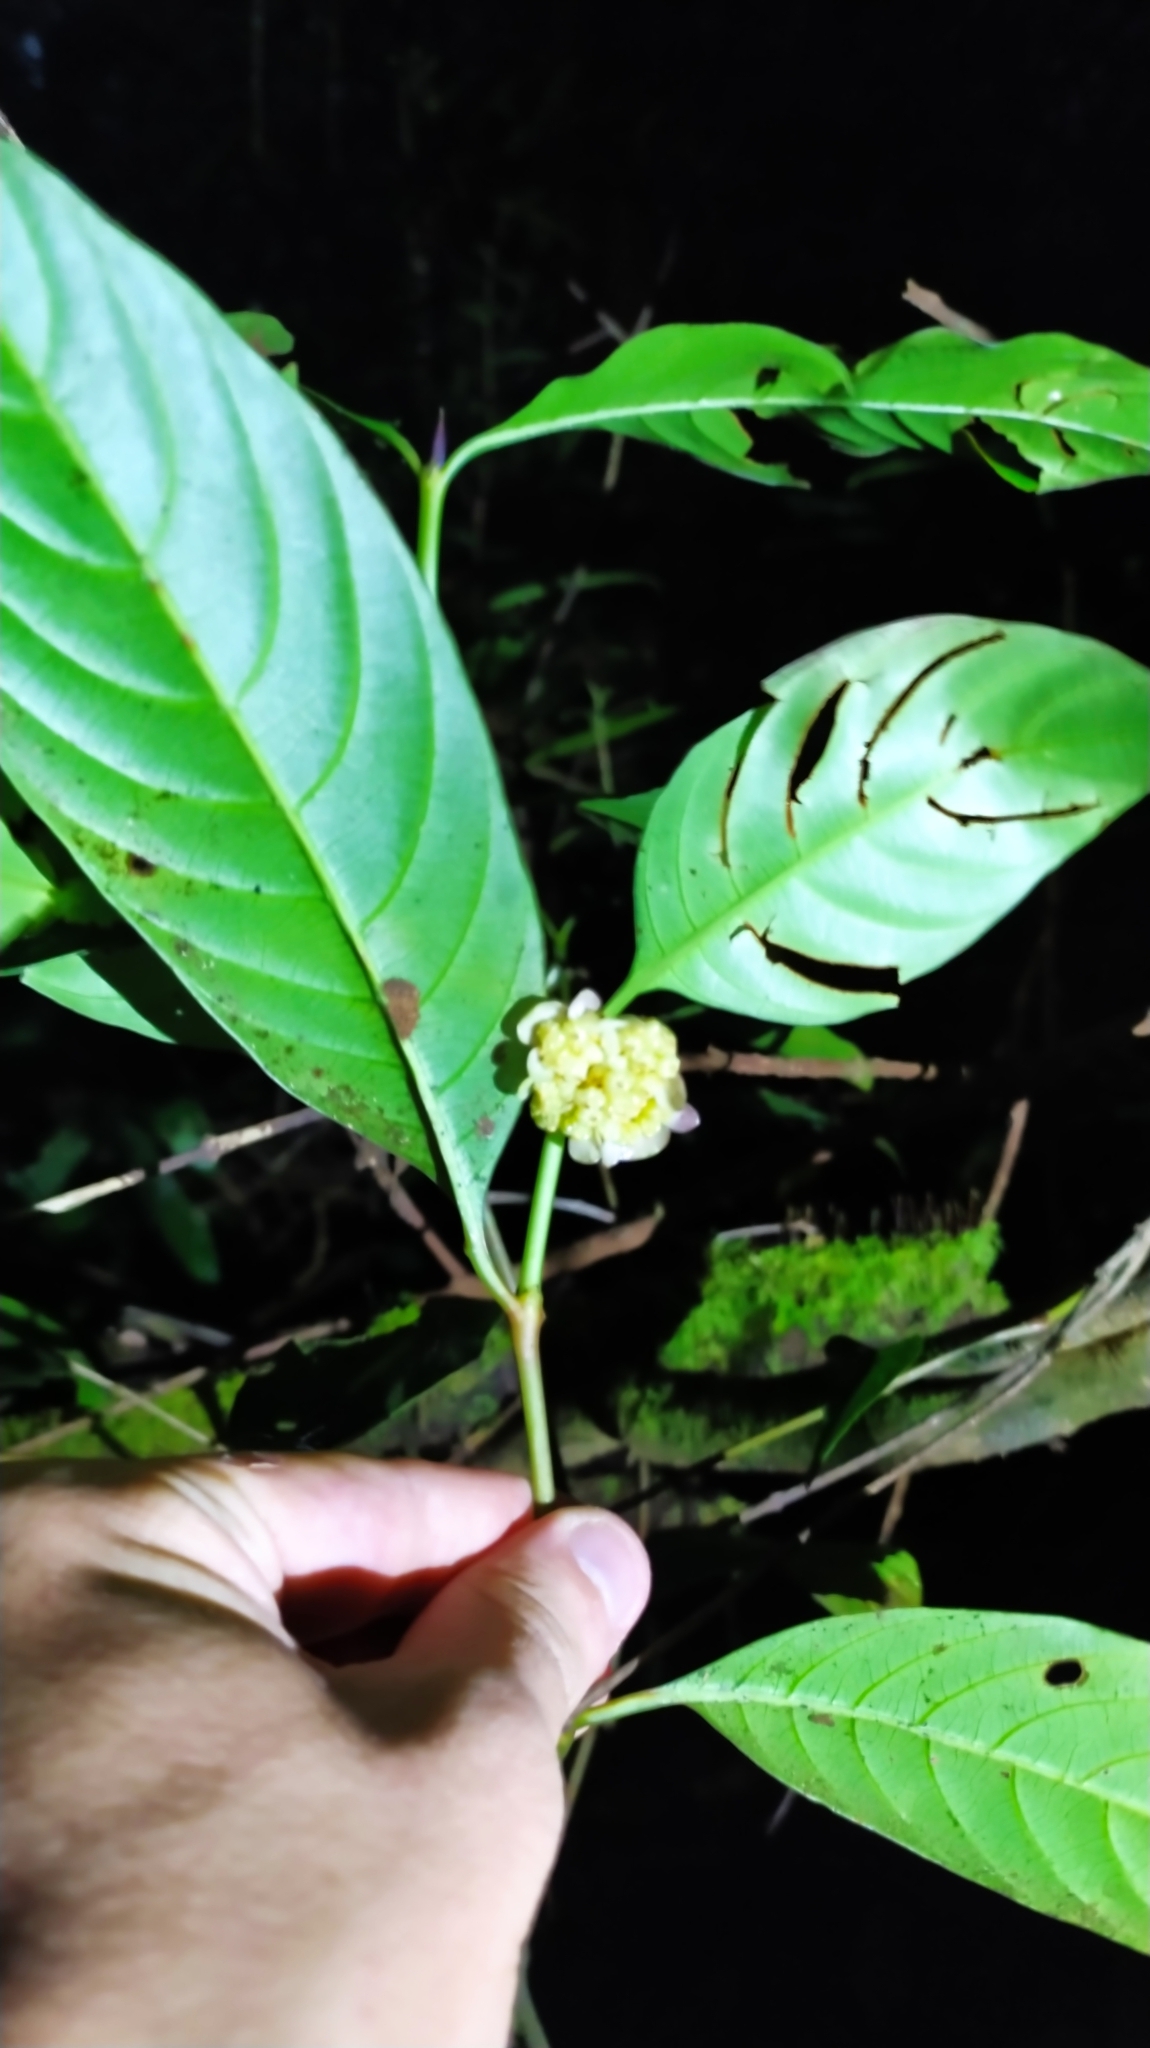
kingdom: Plantae
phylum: Tracheophyta
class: Magnoliopsida
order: Gentianales
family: Rubiaceae
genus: Palicourea
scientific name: Palicourea dichotoma
